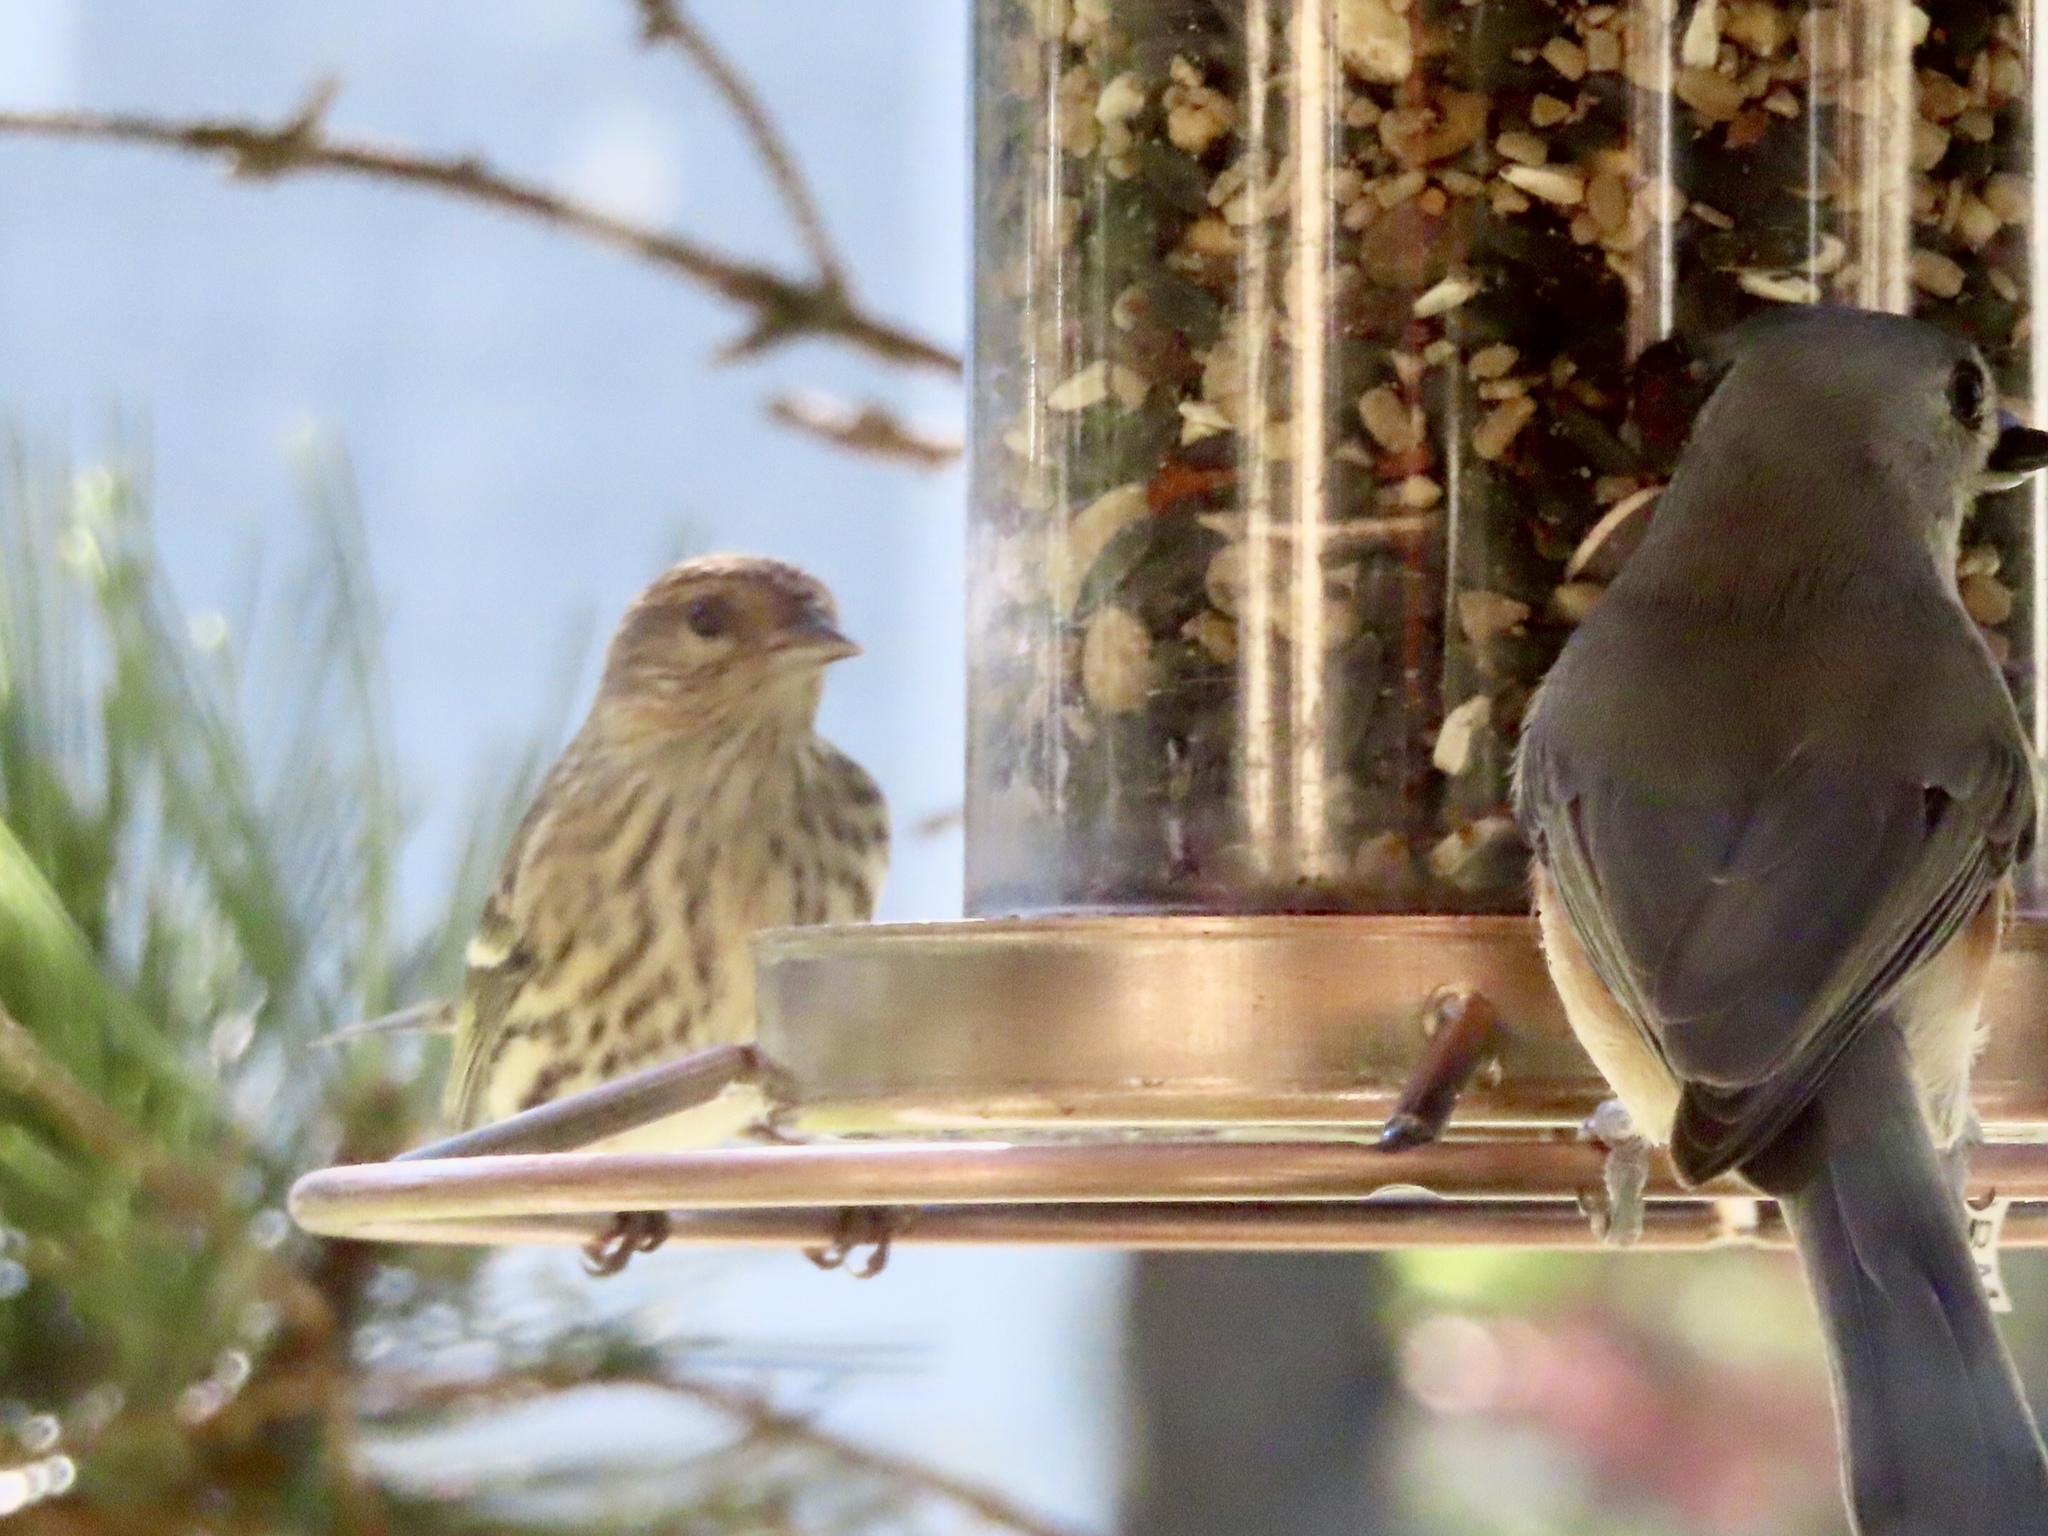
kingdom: Animalia
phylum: Chordata
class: Aves
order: Passeriformes
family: Fringillidae
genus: Spinus
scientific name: Spinus pinus
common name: Pine siskin
